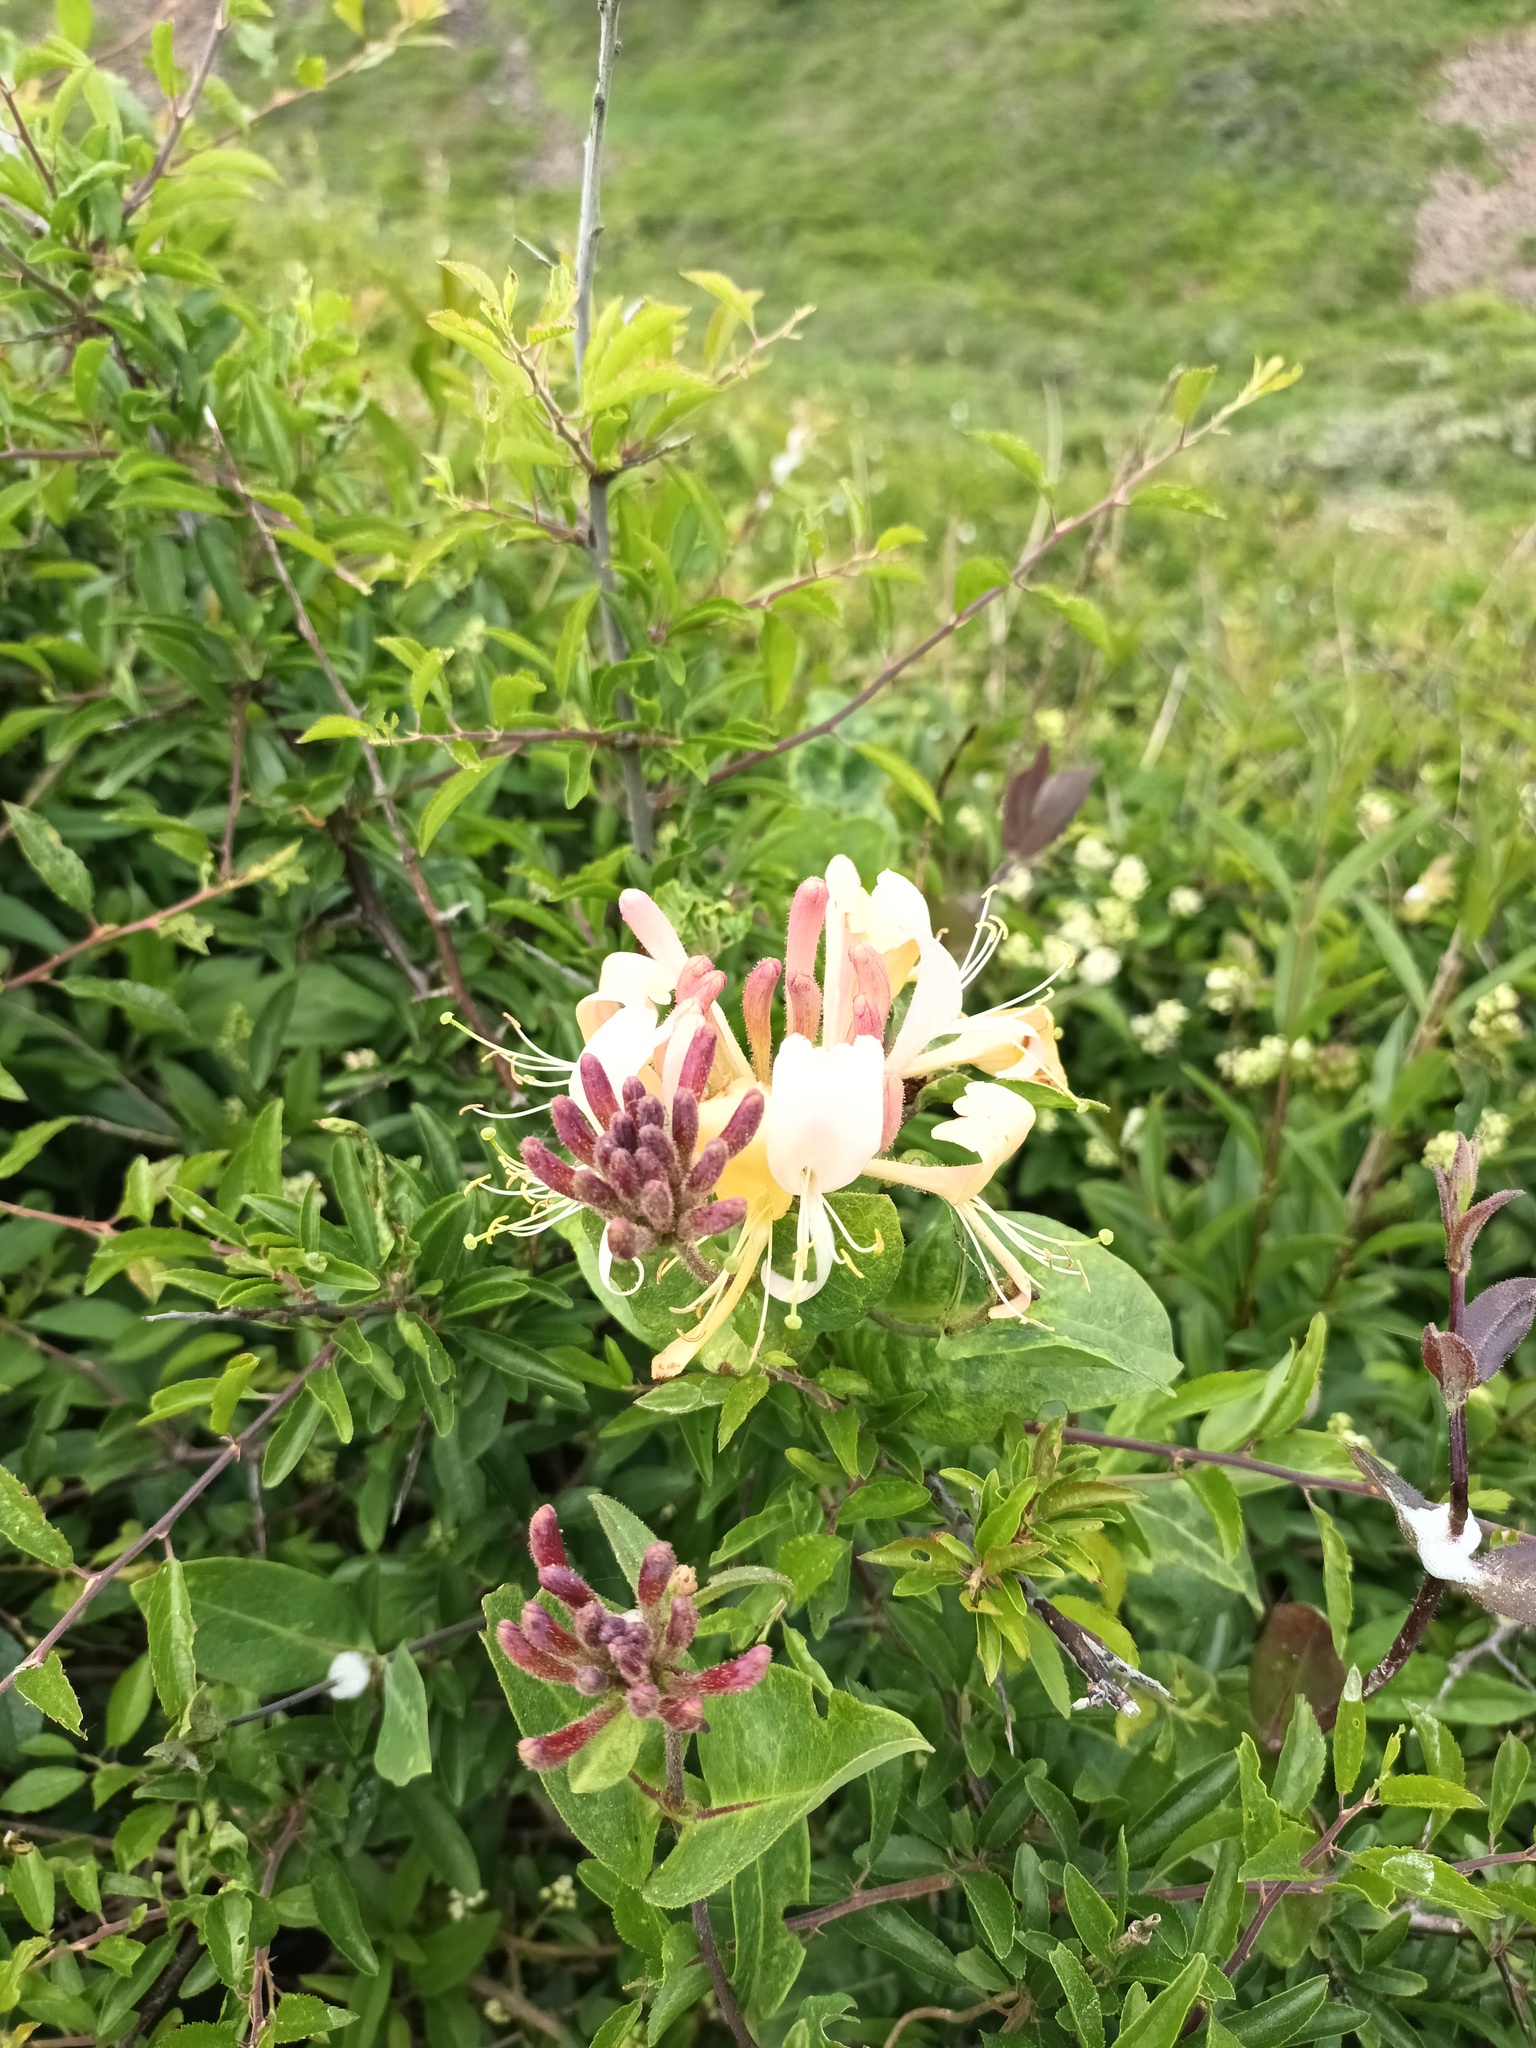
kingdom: Plantae
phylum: Tracheophyta
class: Magnoliopsida
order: Dipsacales
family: Caprifoliaceae
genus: Lonicera
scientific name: Lonicera periclymenum
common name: European honeysuckle
